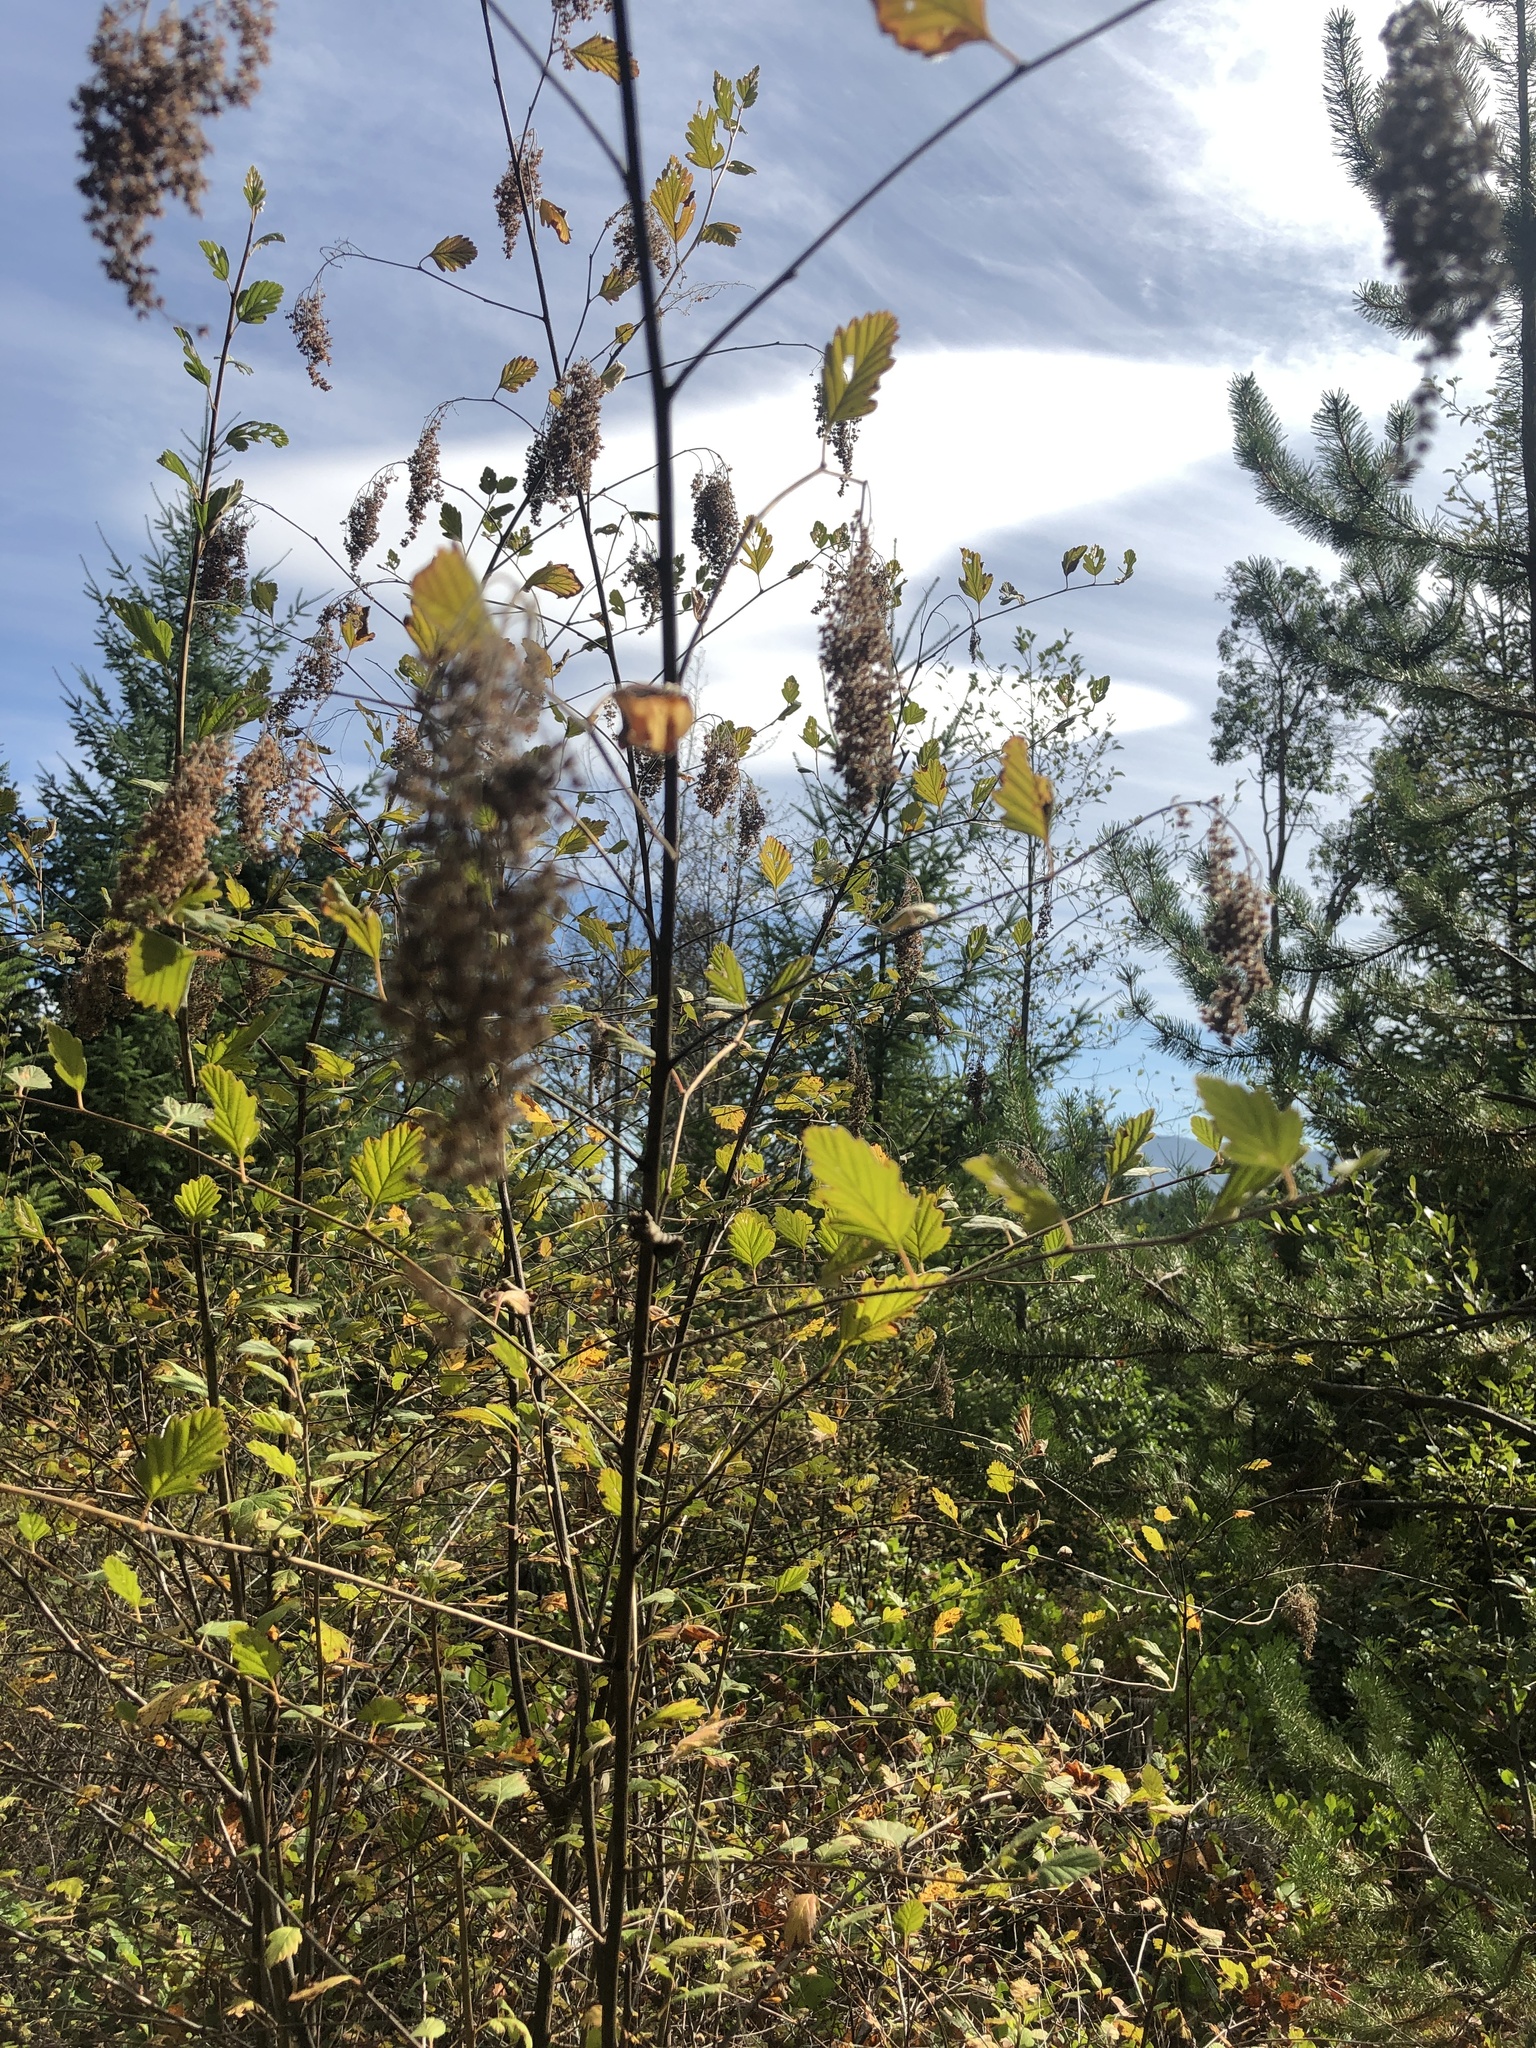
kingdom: Plantae
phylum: Tracheophyta
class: Magnoliopsida
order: Rosales
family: Rosaceae
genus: Holodiscus
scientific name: Holodiscus discolor
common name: Oceanspray
